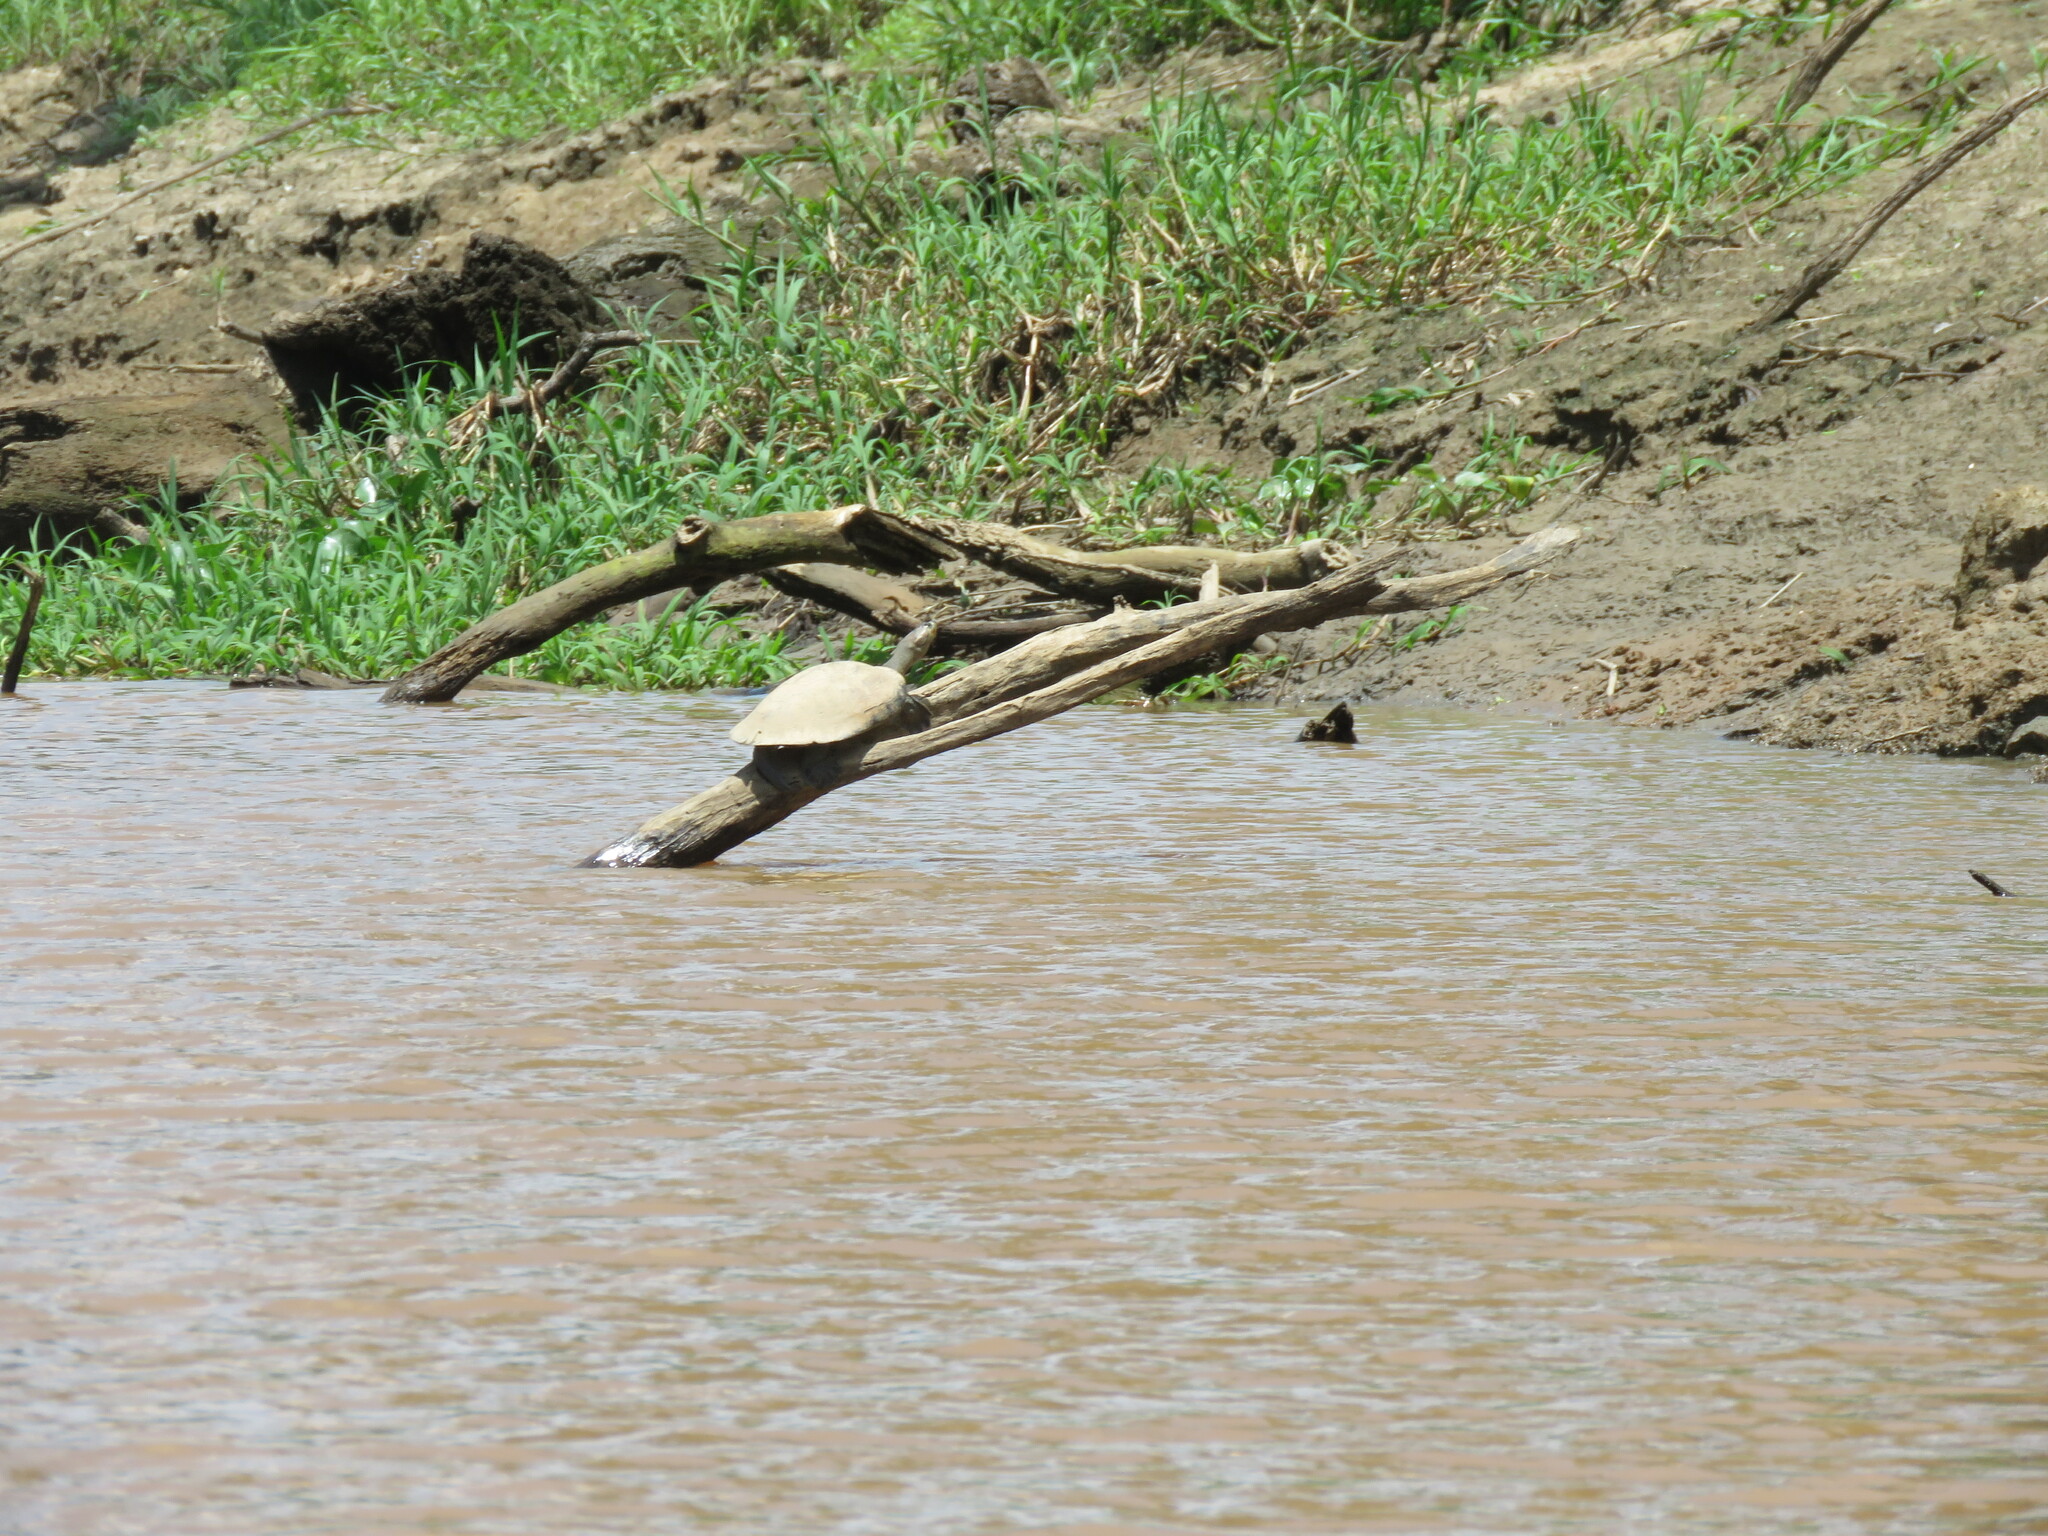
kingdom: Animalia
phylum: Chordata
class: Testudines
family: Podocnemididae
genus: Podocnemis
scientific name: Podocnemis unifilis
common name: Yellow-spotted amazon river turtle
